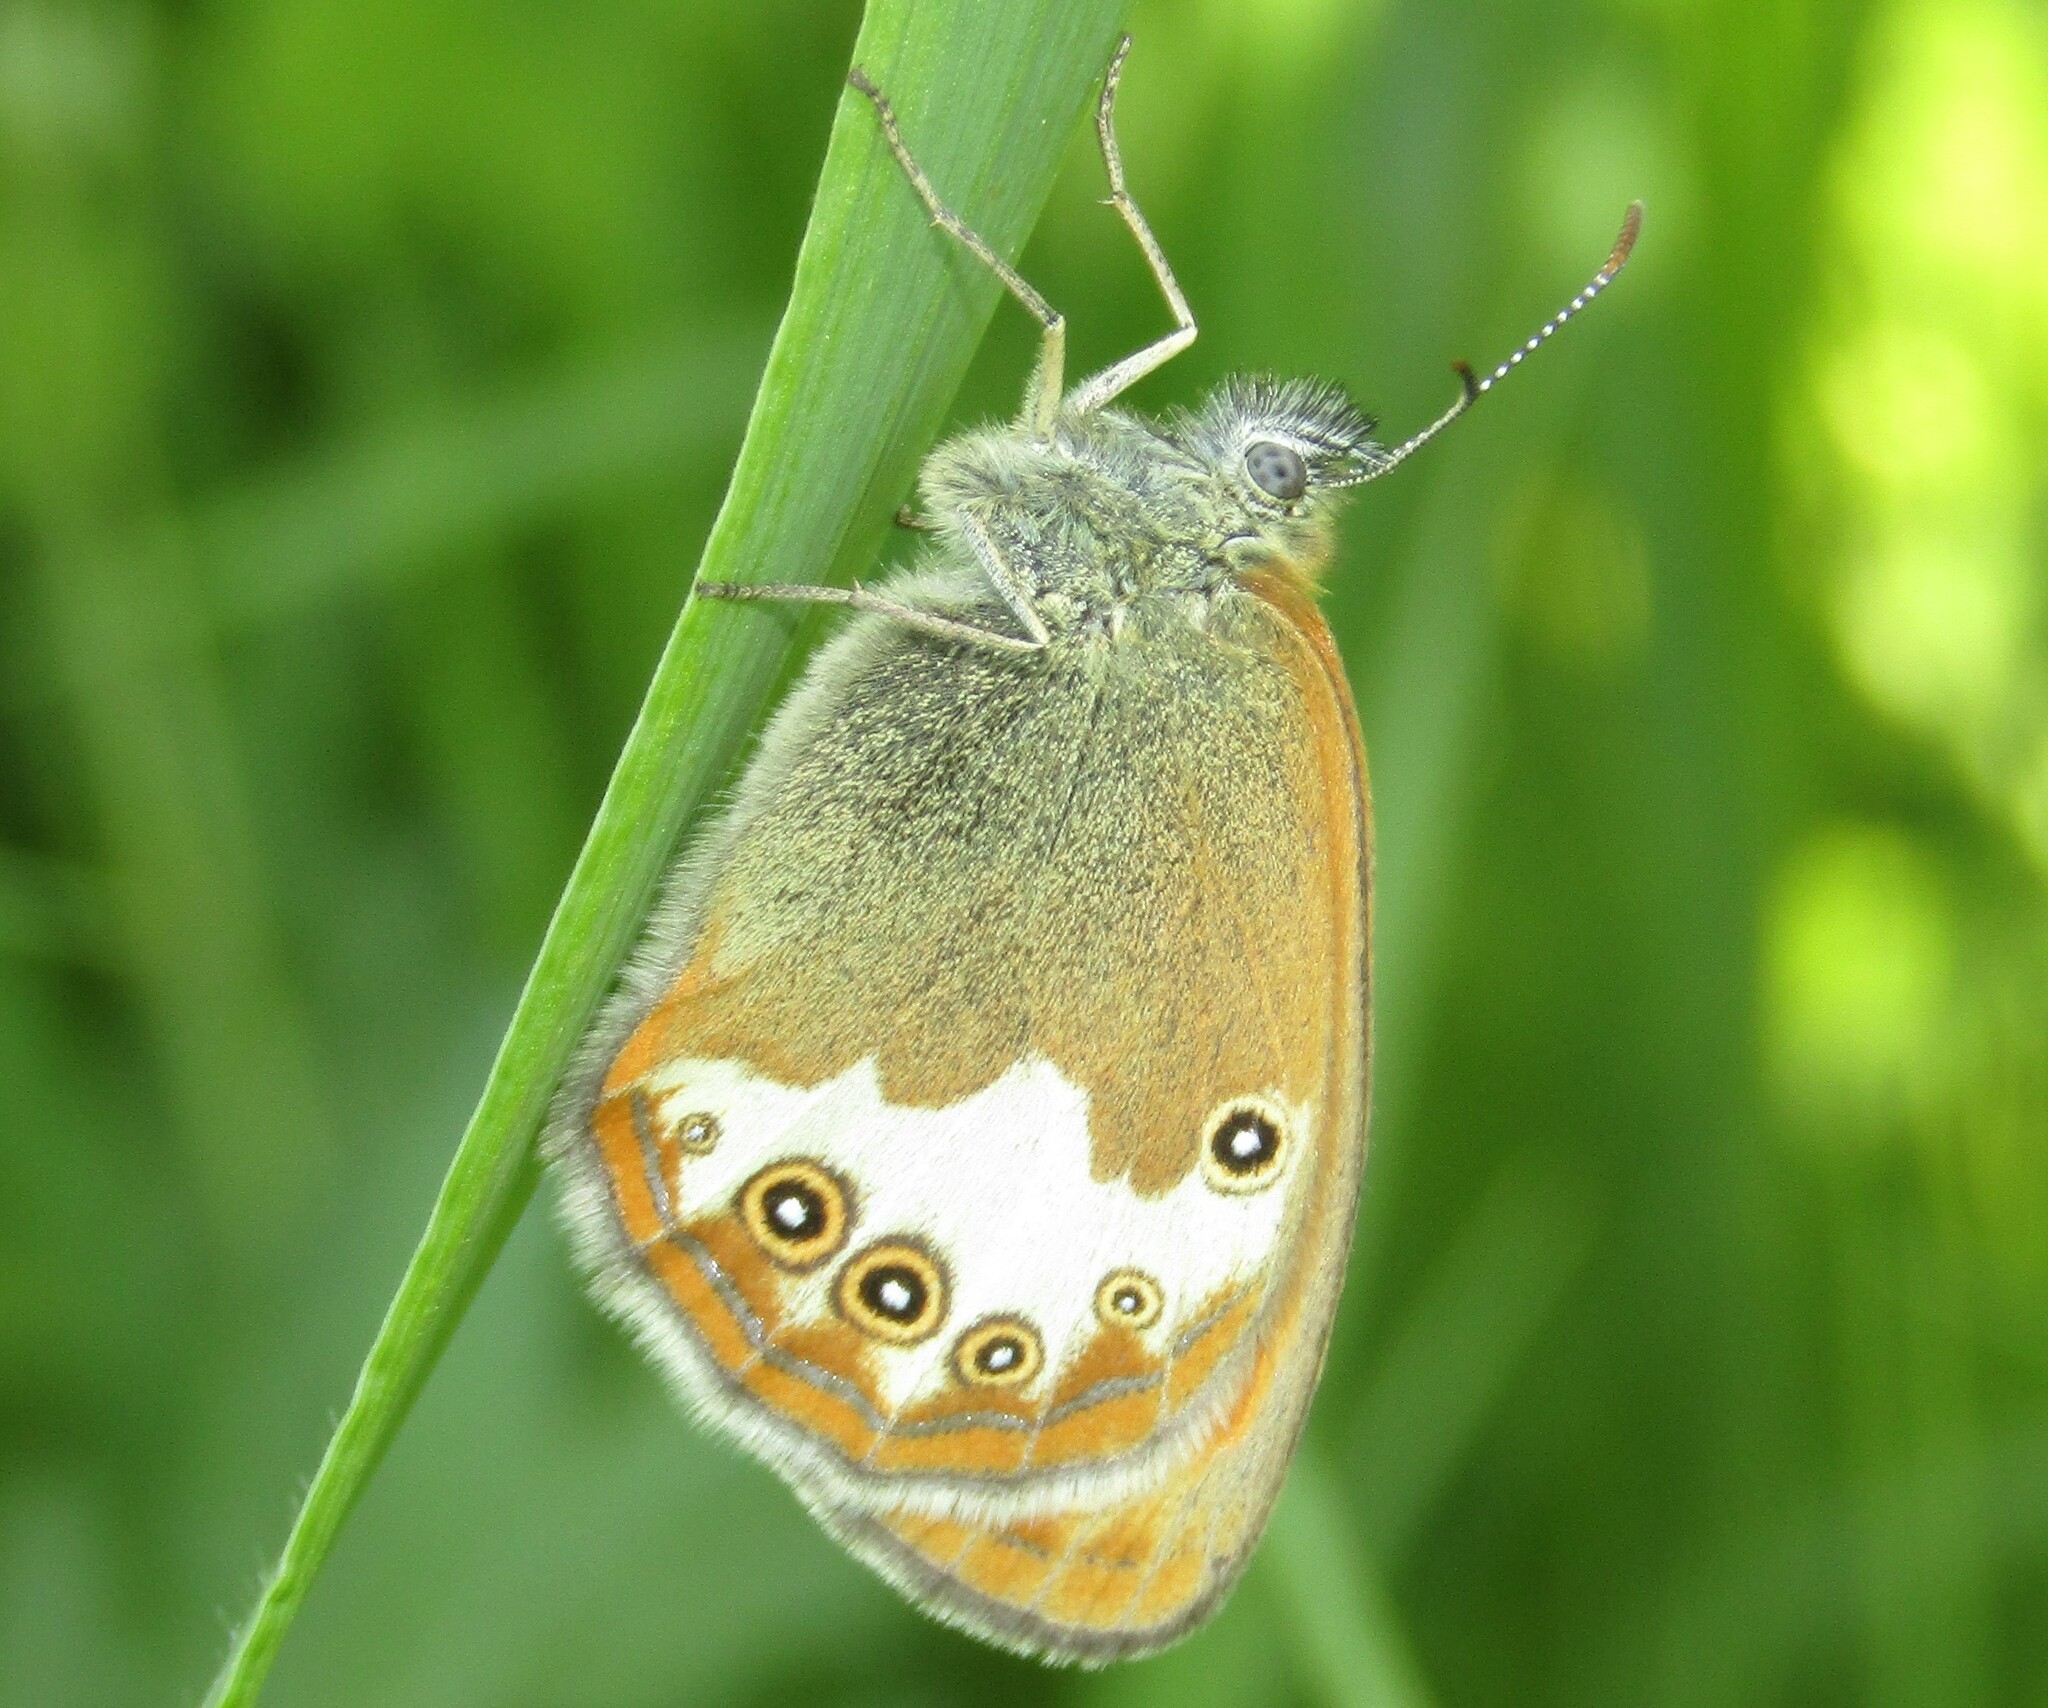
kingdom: Animalia
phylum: Arthropoda
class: Insecta
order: Lepidoptera
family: Nymphalidae
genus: Coenonympha
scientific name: Coenonympha arcania
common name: Pearly heath
